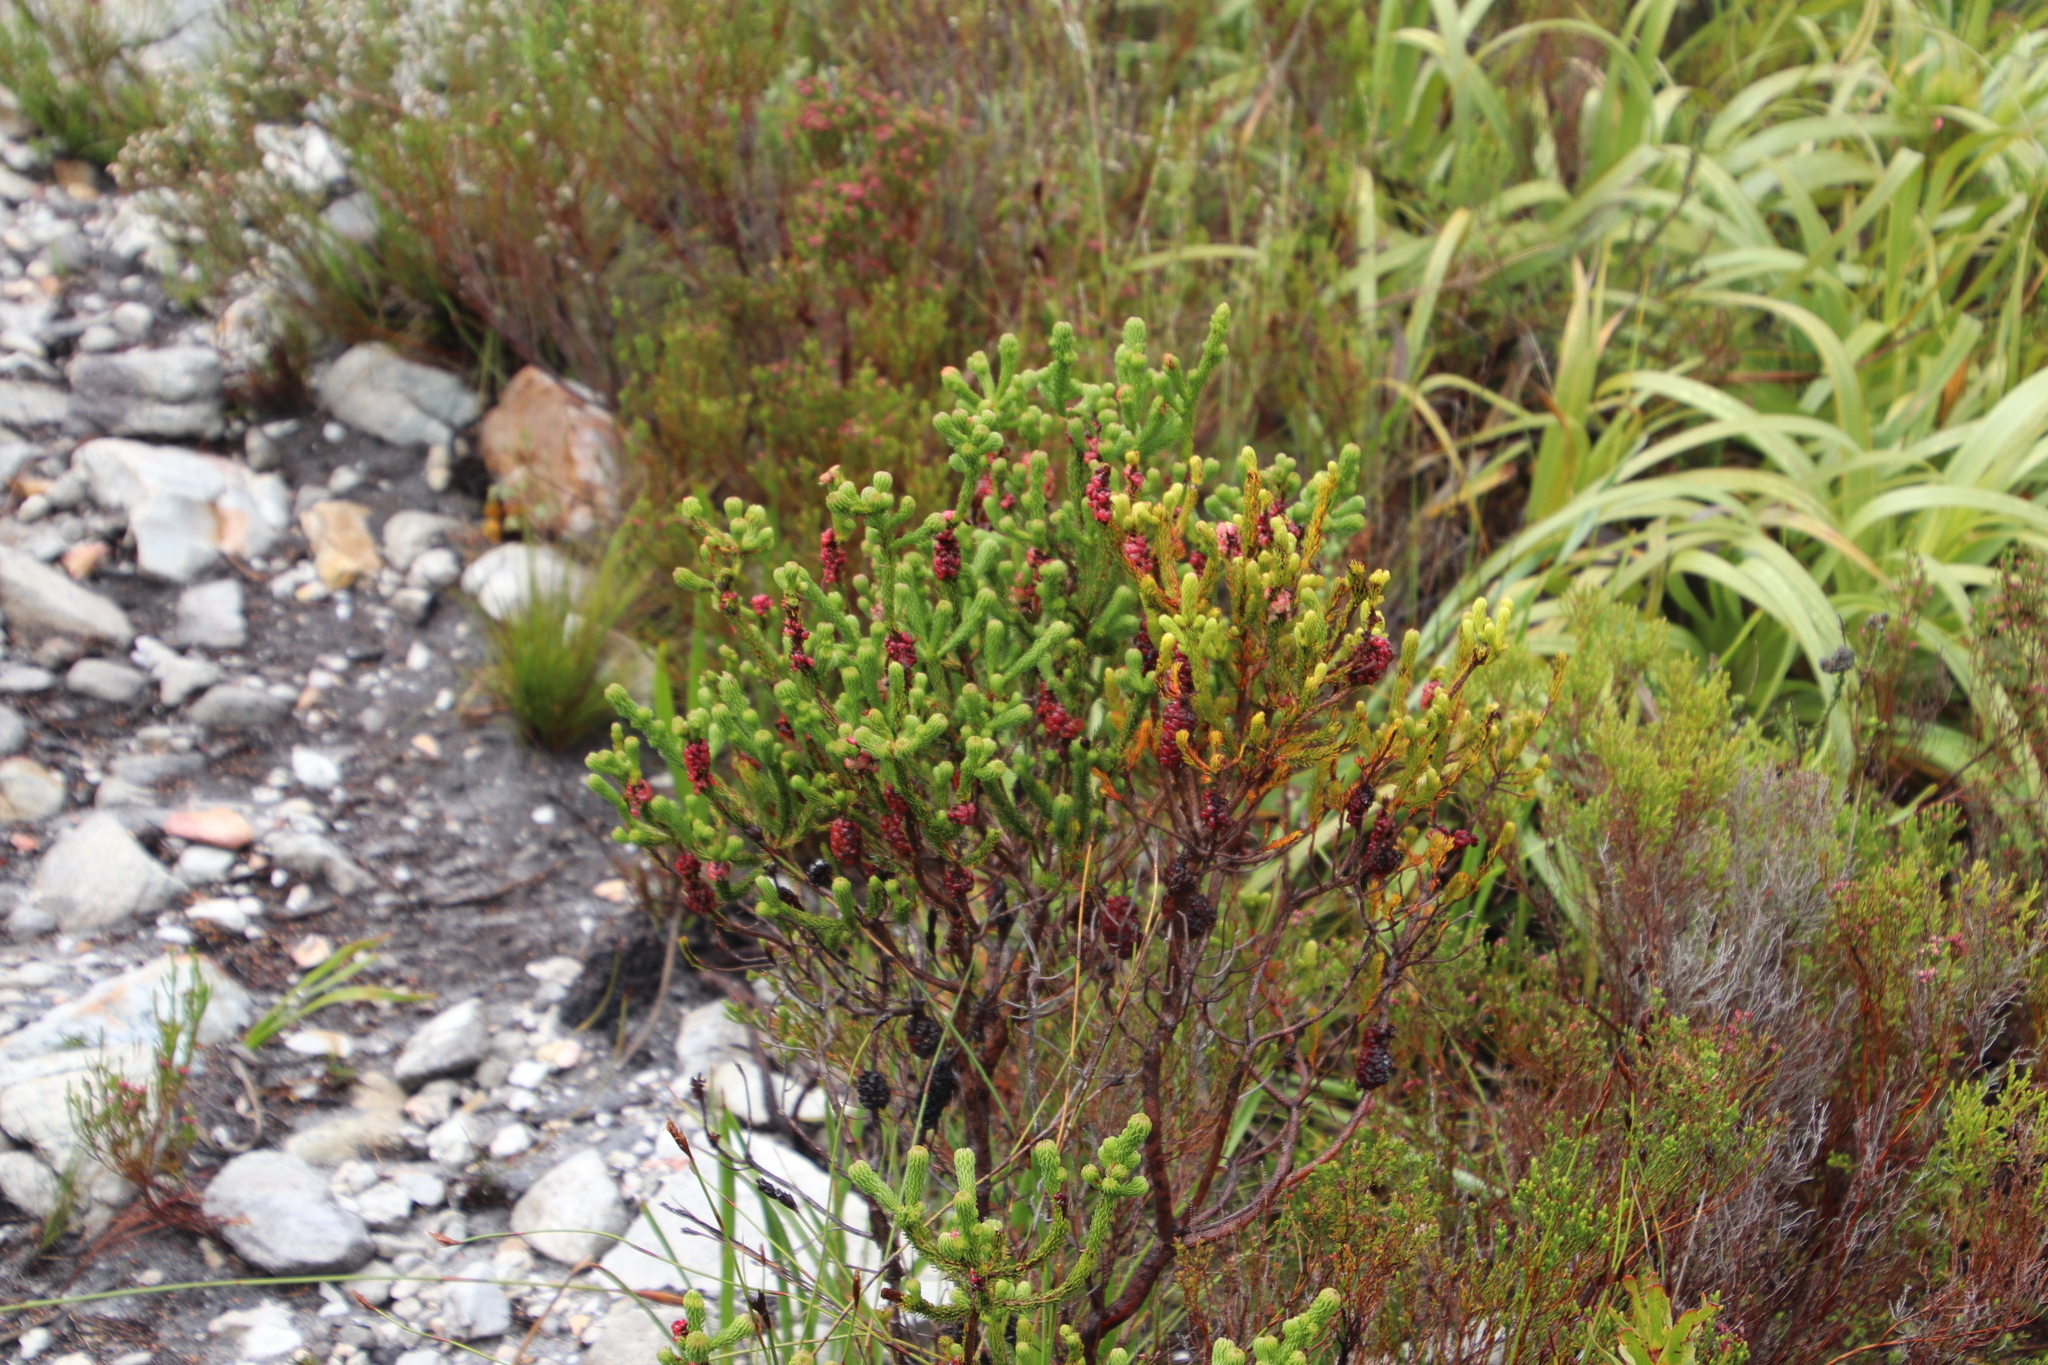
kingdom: Plantae
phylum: Tracheophyta
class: Magnoliopsida
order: Ericales
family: Ericaceae
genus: Erica
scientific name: Erica sessiliflora
